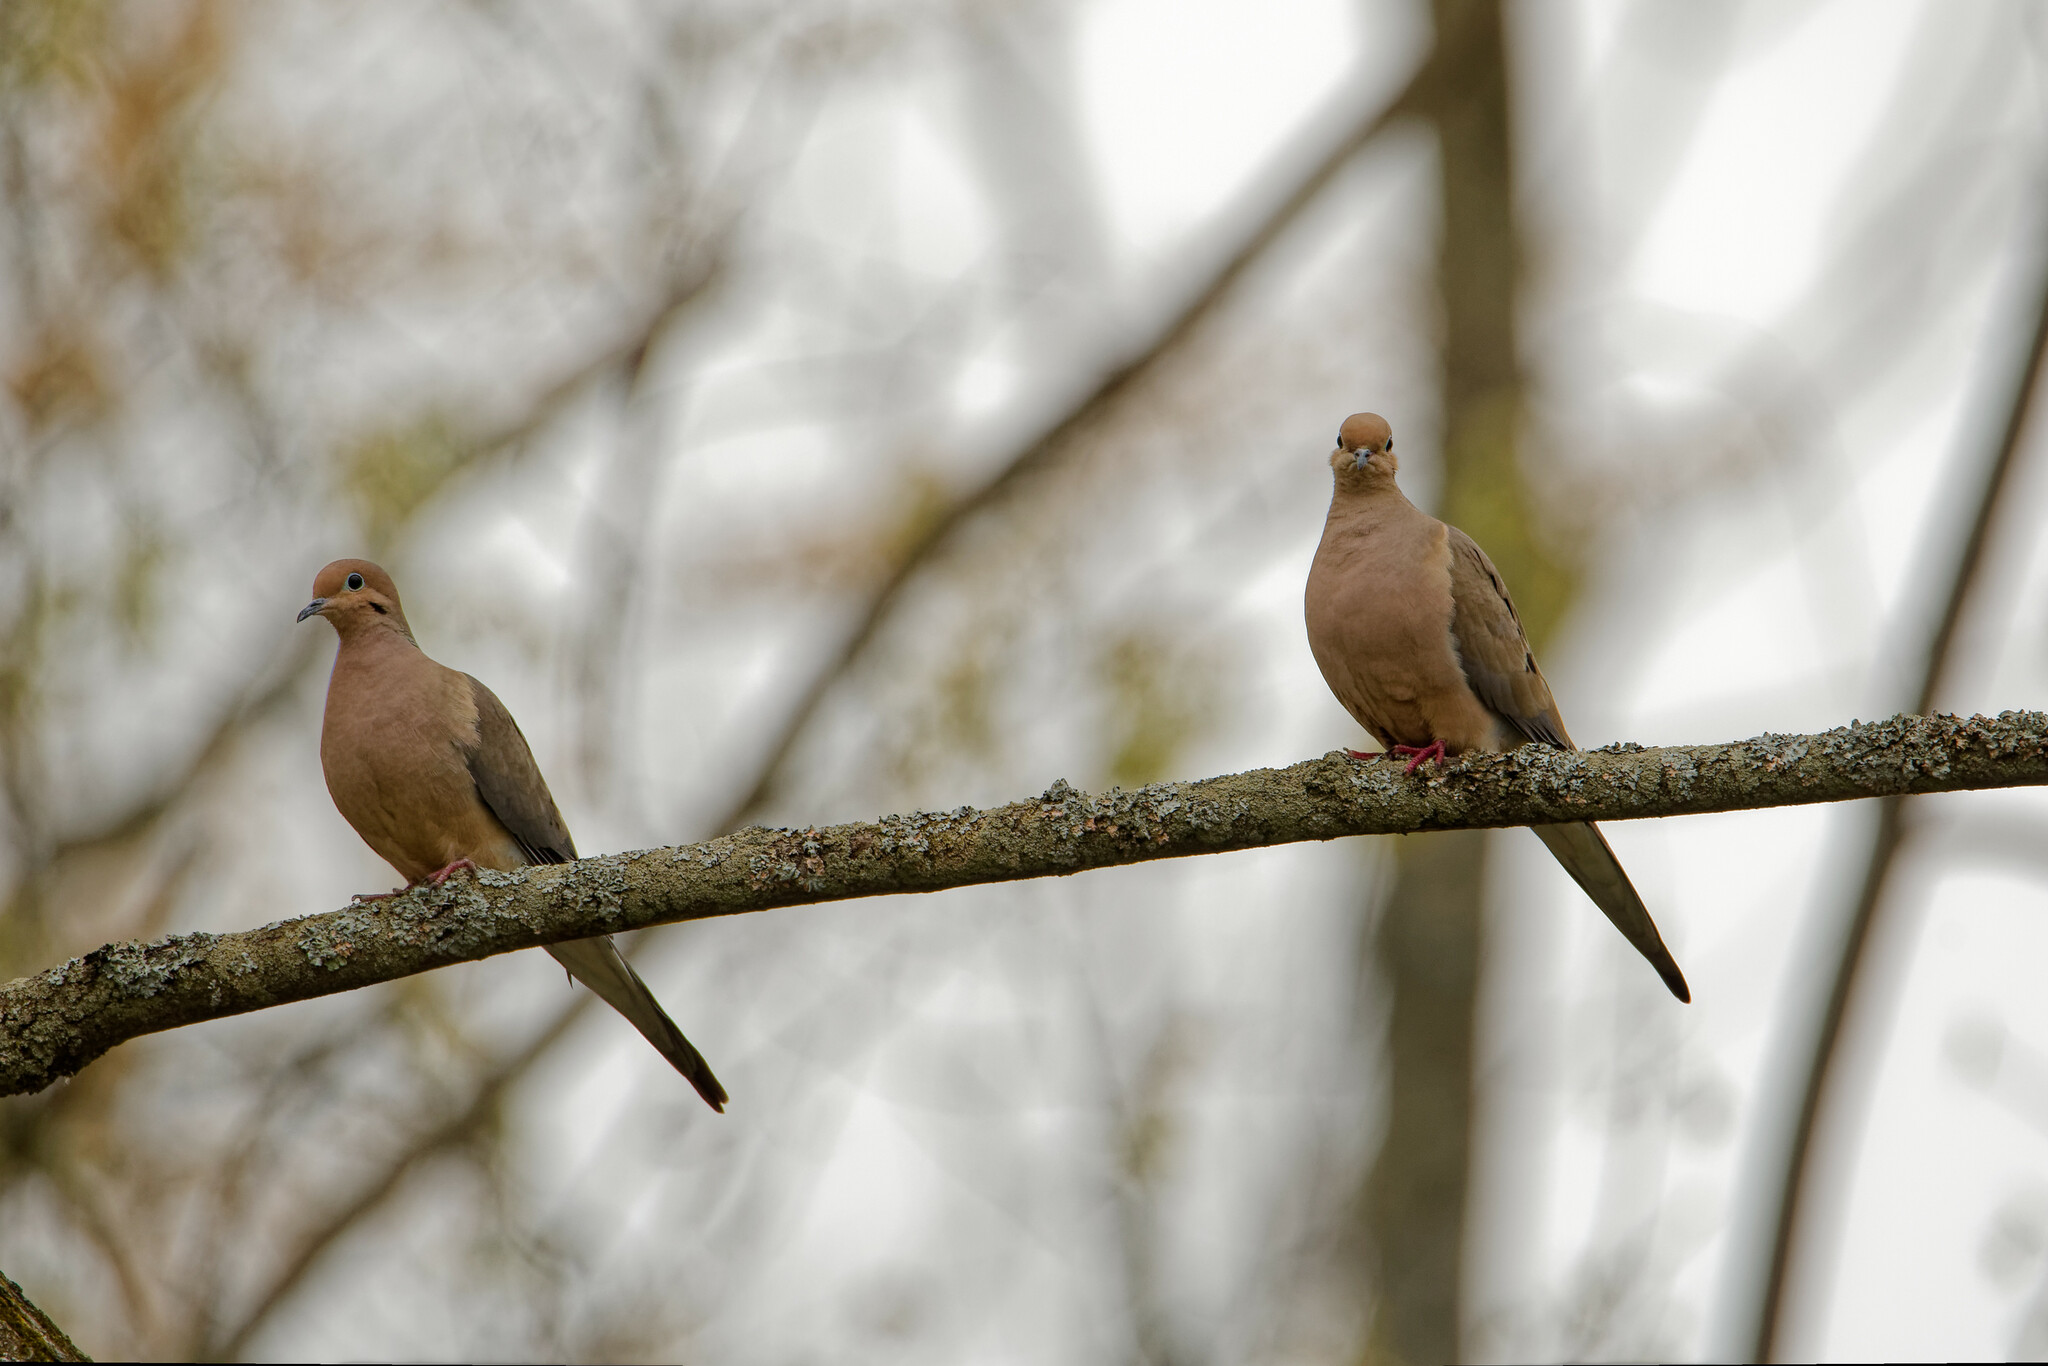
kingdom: Animalia
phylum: Chordata
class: Aves
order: Columbiformes
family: Columbidae
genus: Zenaida
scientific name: Zenaida macroura
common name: Mourning dove
